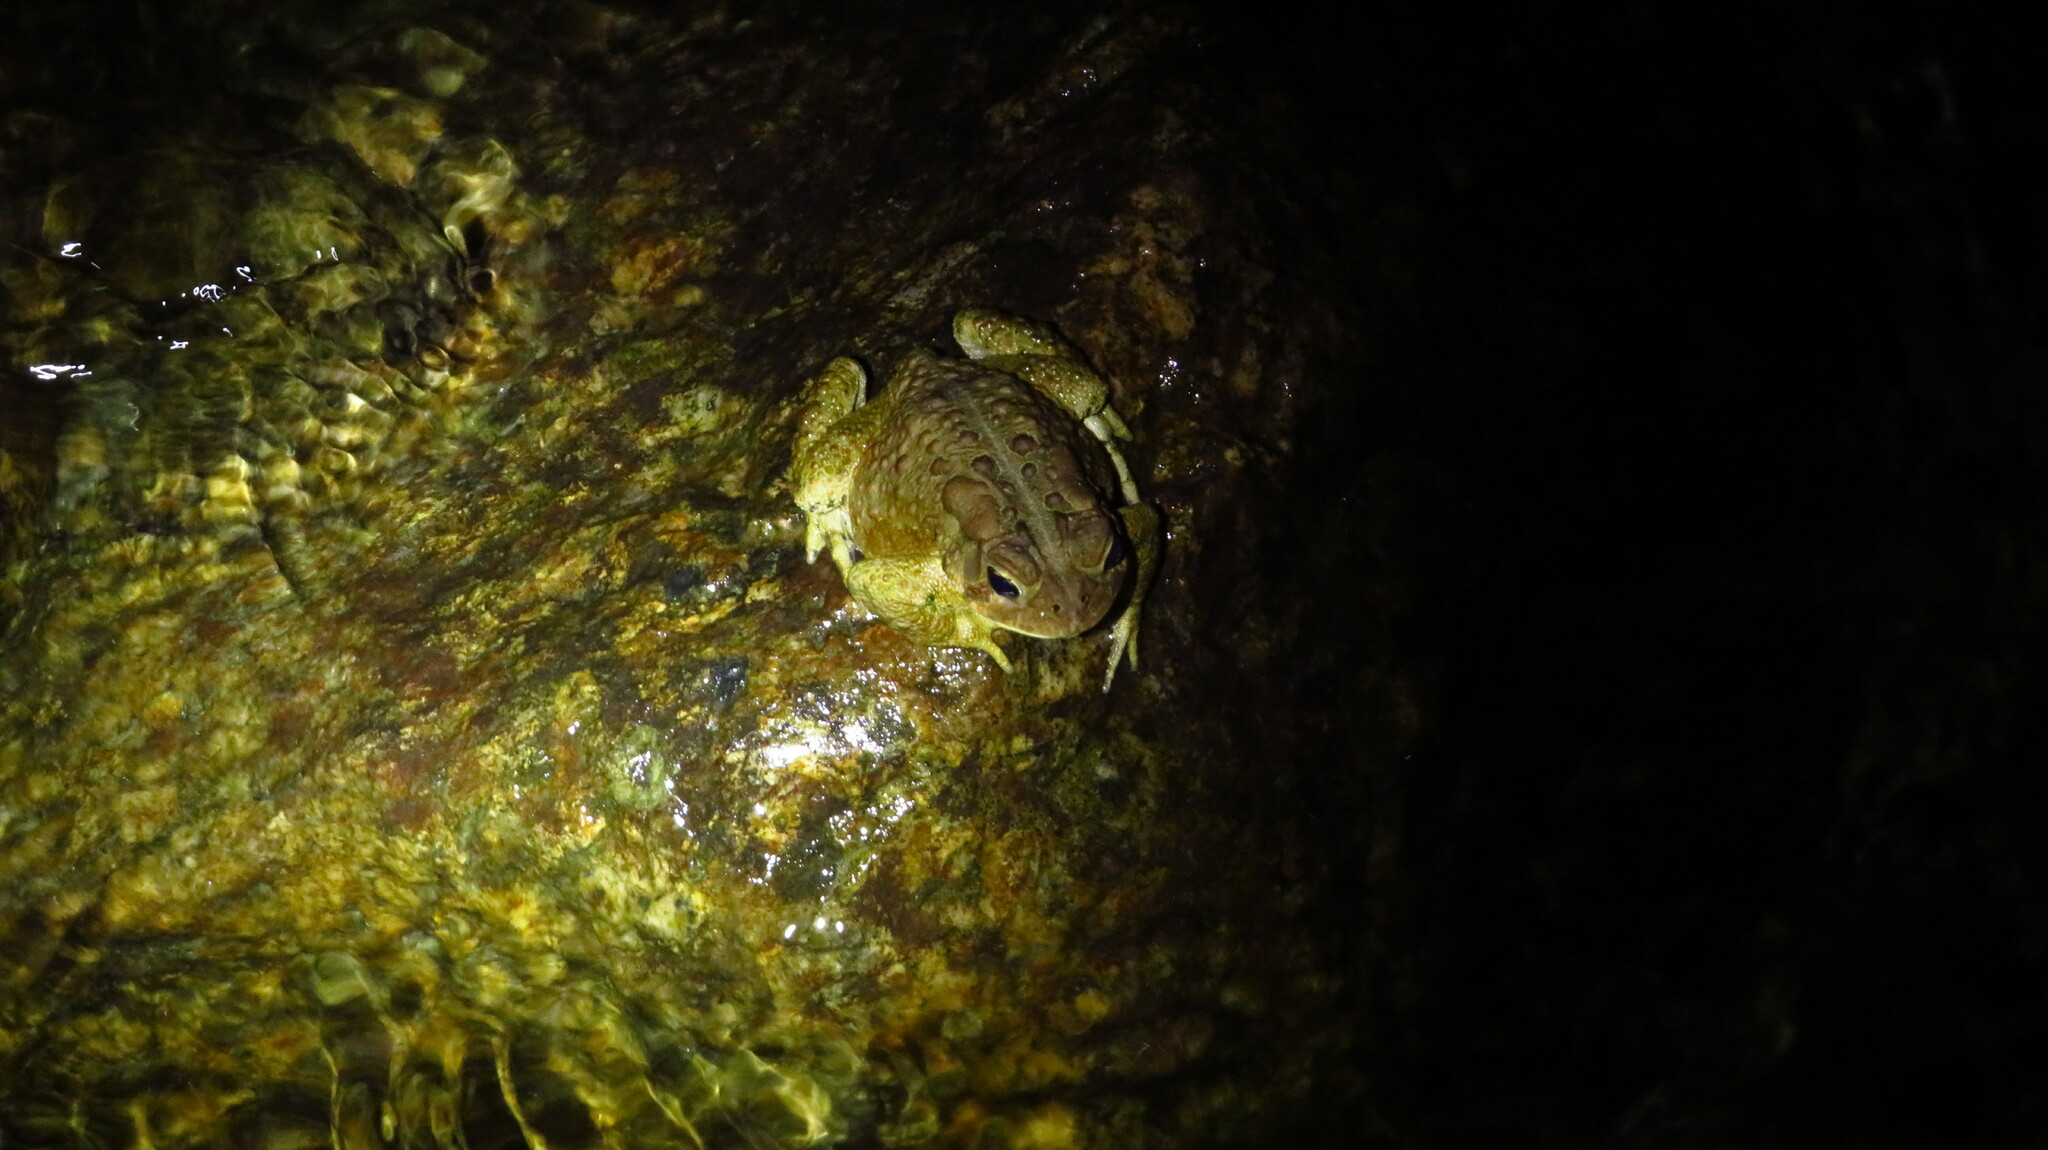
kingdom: Animalia
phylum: Chordata
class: Amphibia
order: Anura
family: Bufonidae
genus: Anaxyrus
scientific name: Anaxyrus americanus
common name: American toad
